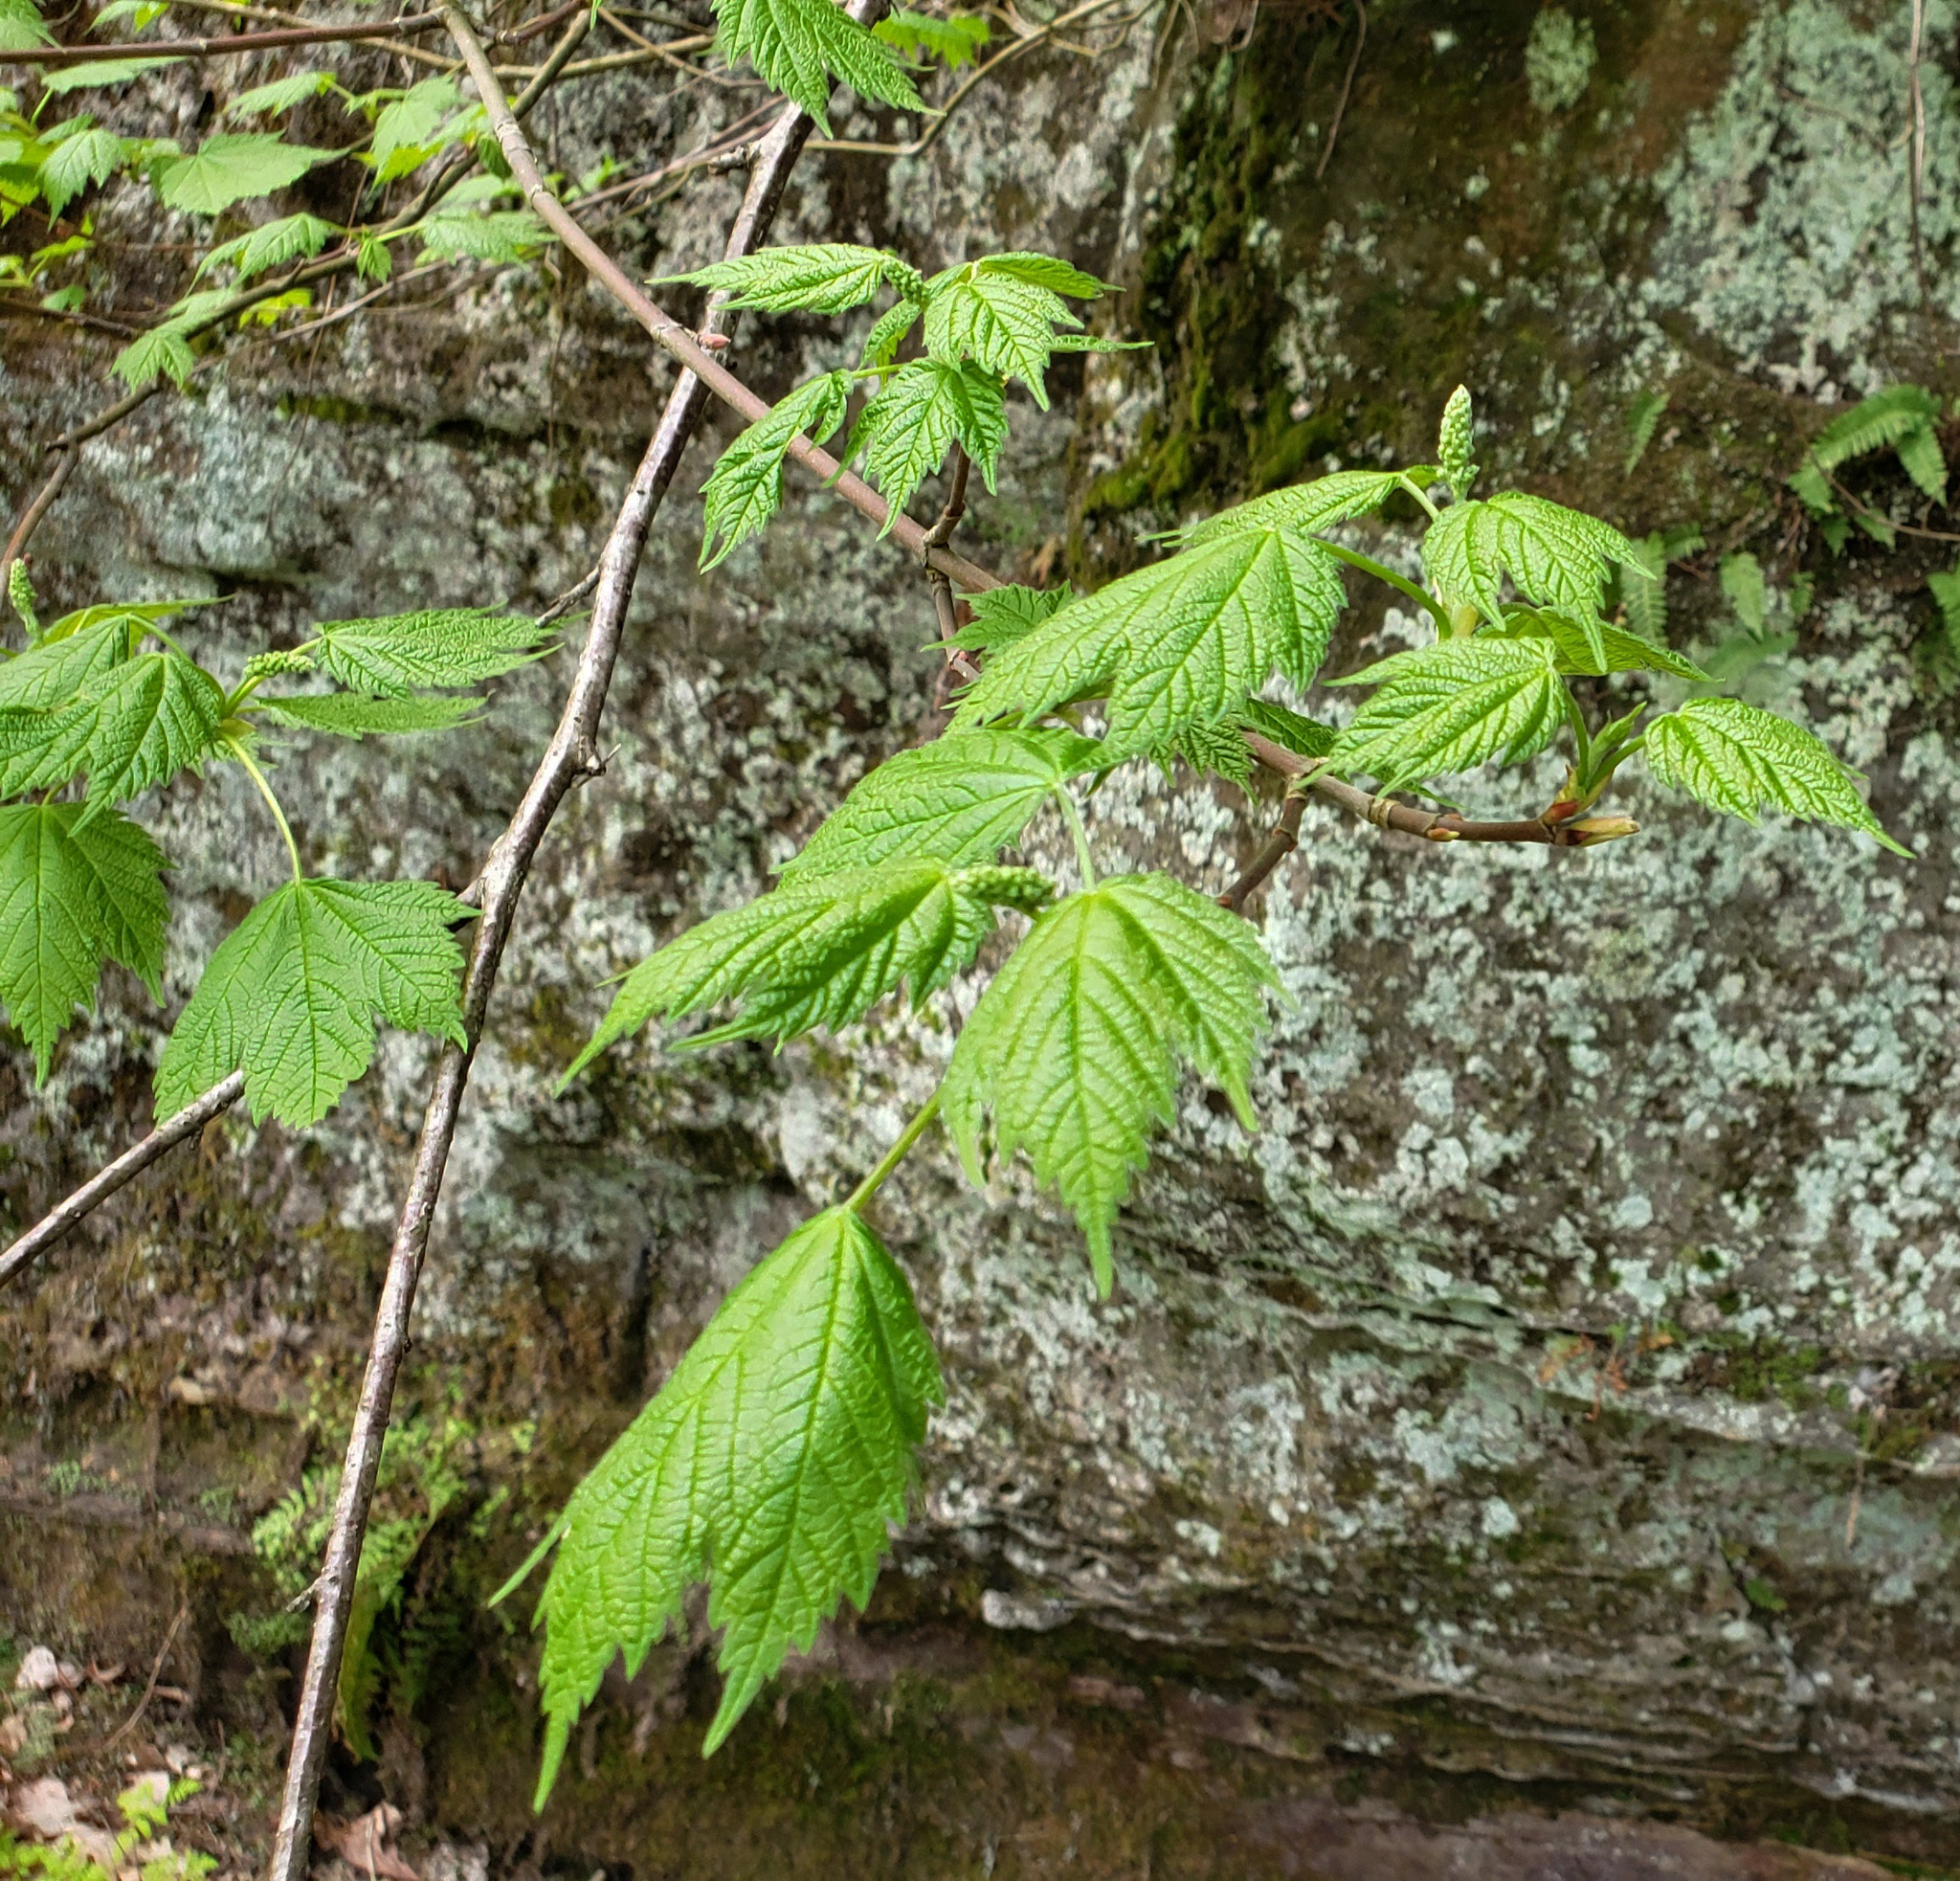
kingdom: Plantae
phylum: Tracheophyta
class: Magnoliopsida
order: Sapindales
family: Sapindaceae
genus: Acer
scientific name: Acer spicatum
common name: Mountain maple
